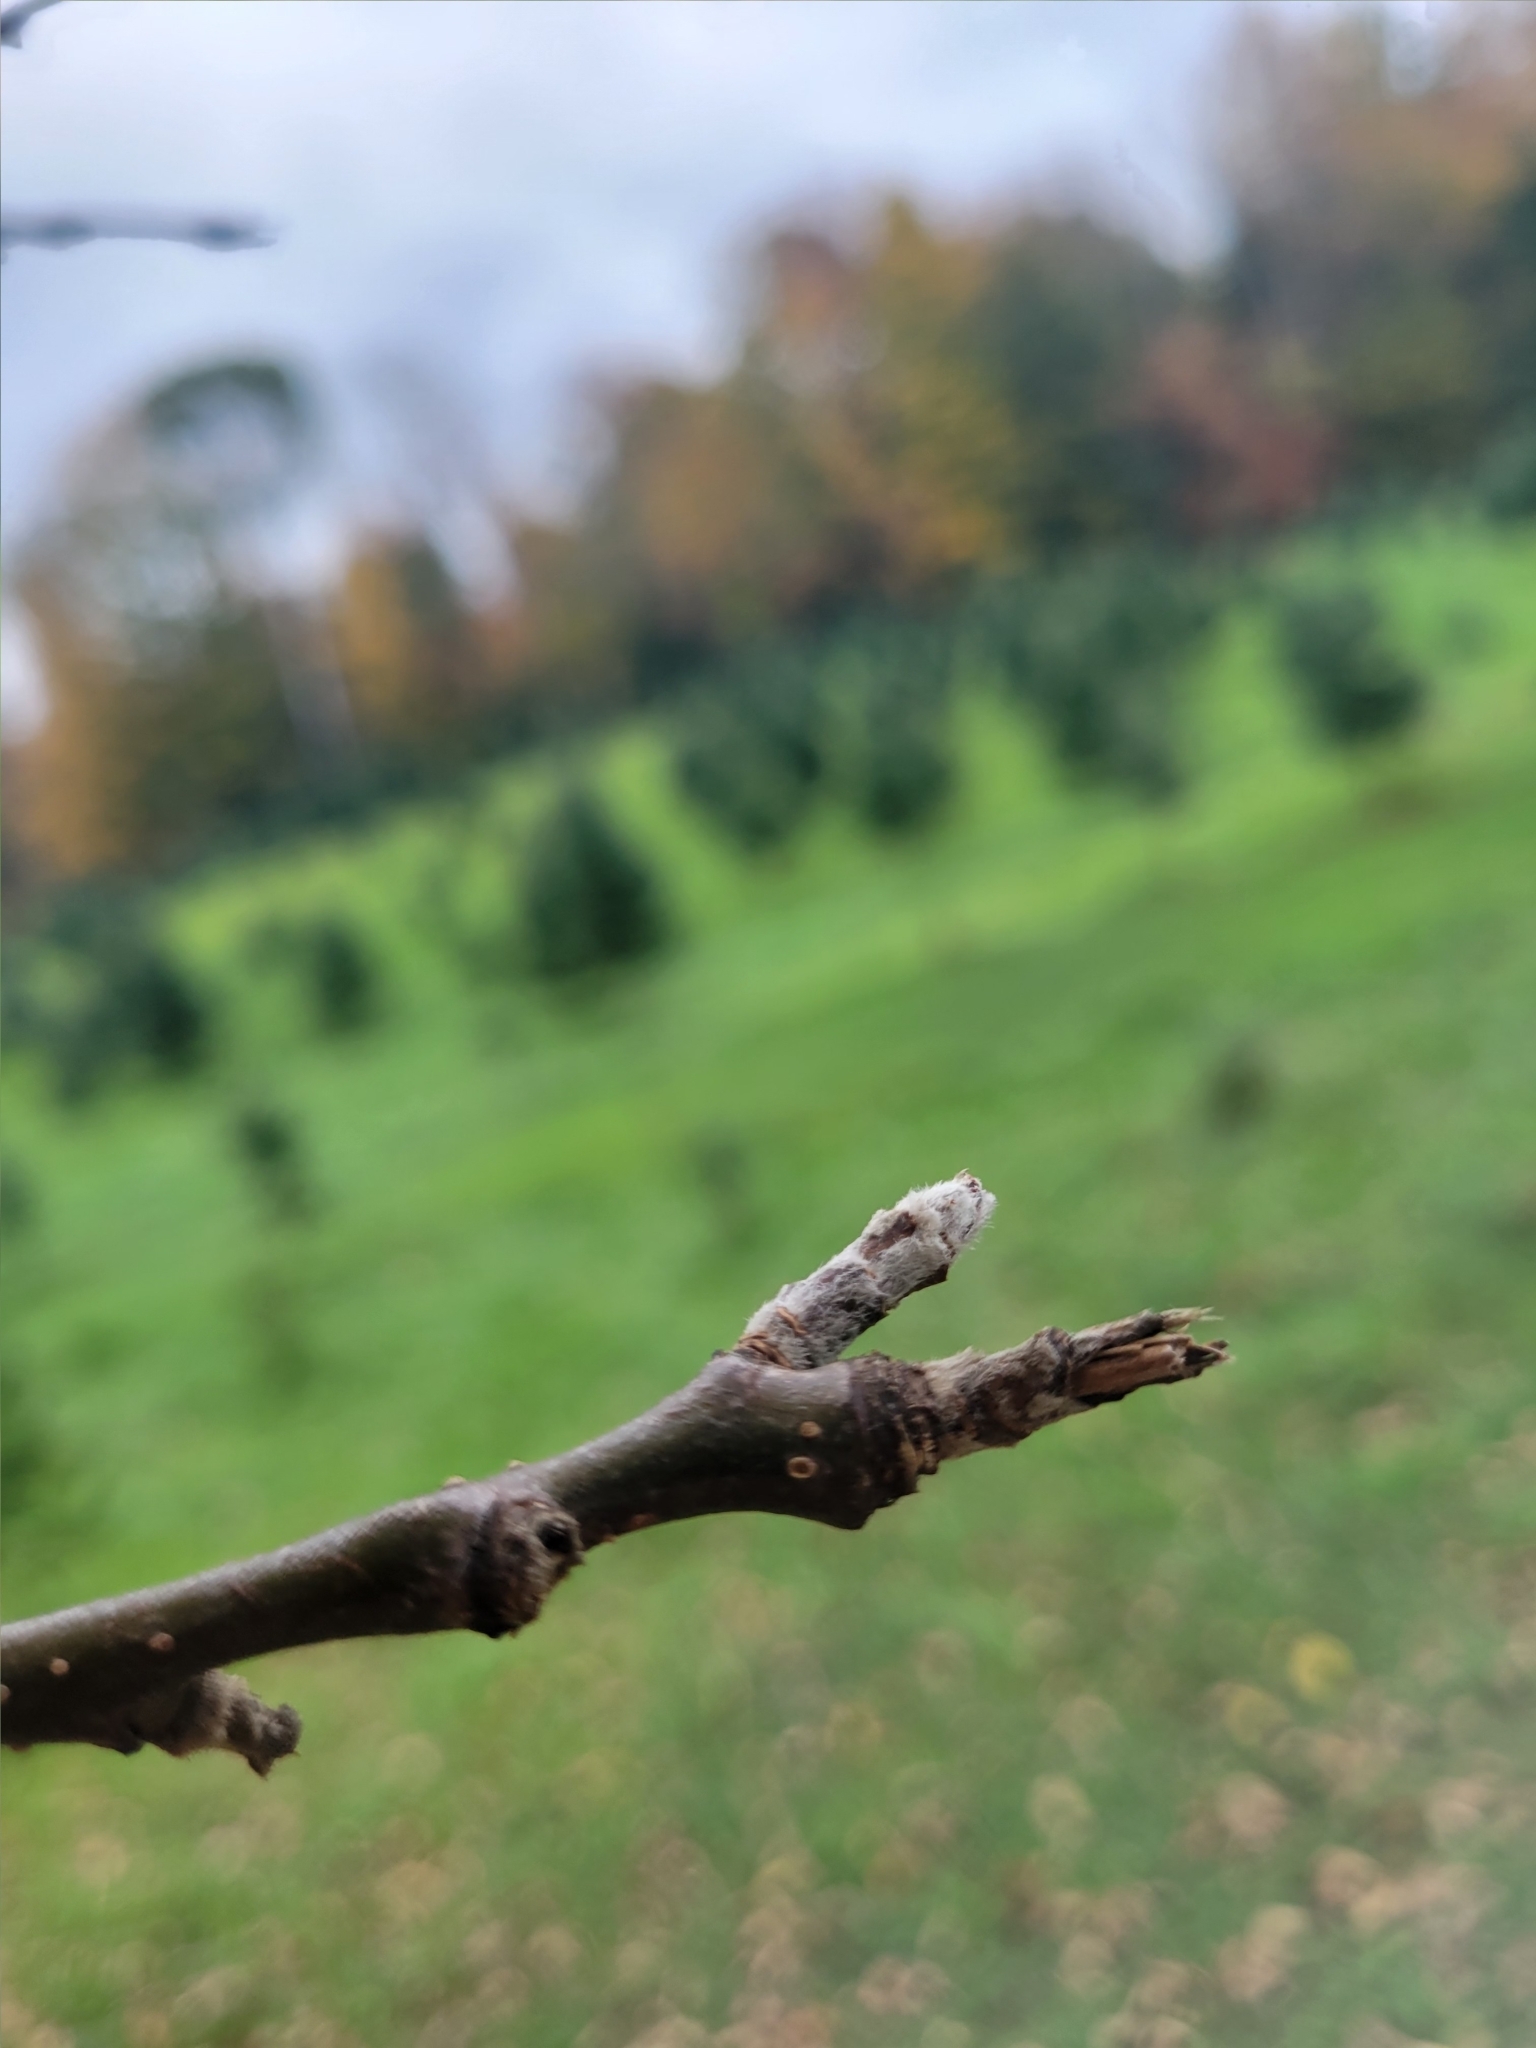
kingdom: Plantae
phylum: Tracheophyta
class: Magnoliopsida
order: Rosales
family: Rosaceae
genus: Malus
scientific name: Malus domestica
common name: Apple
